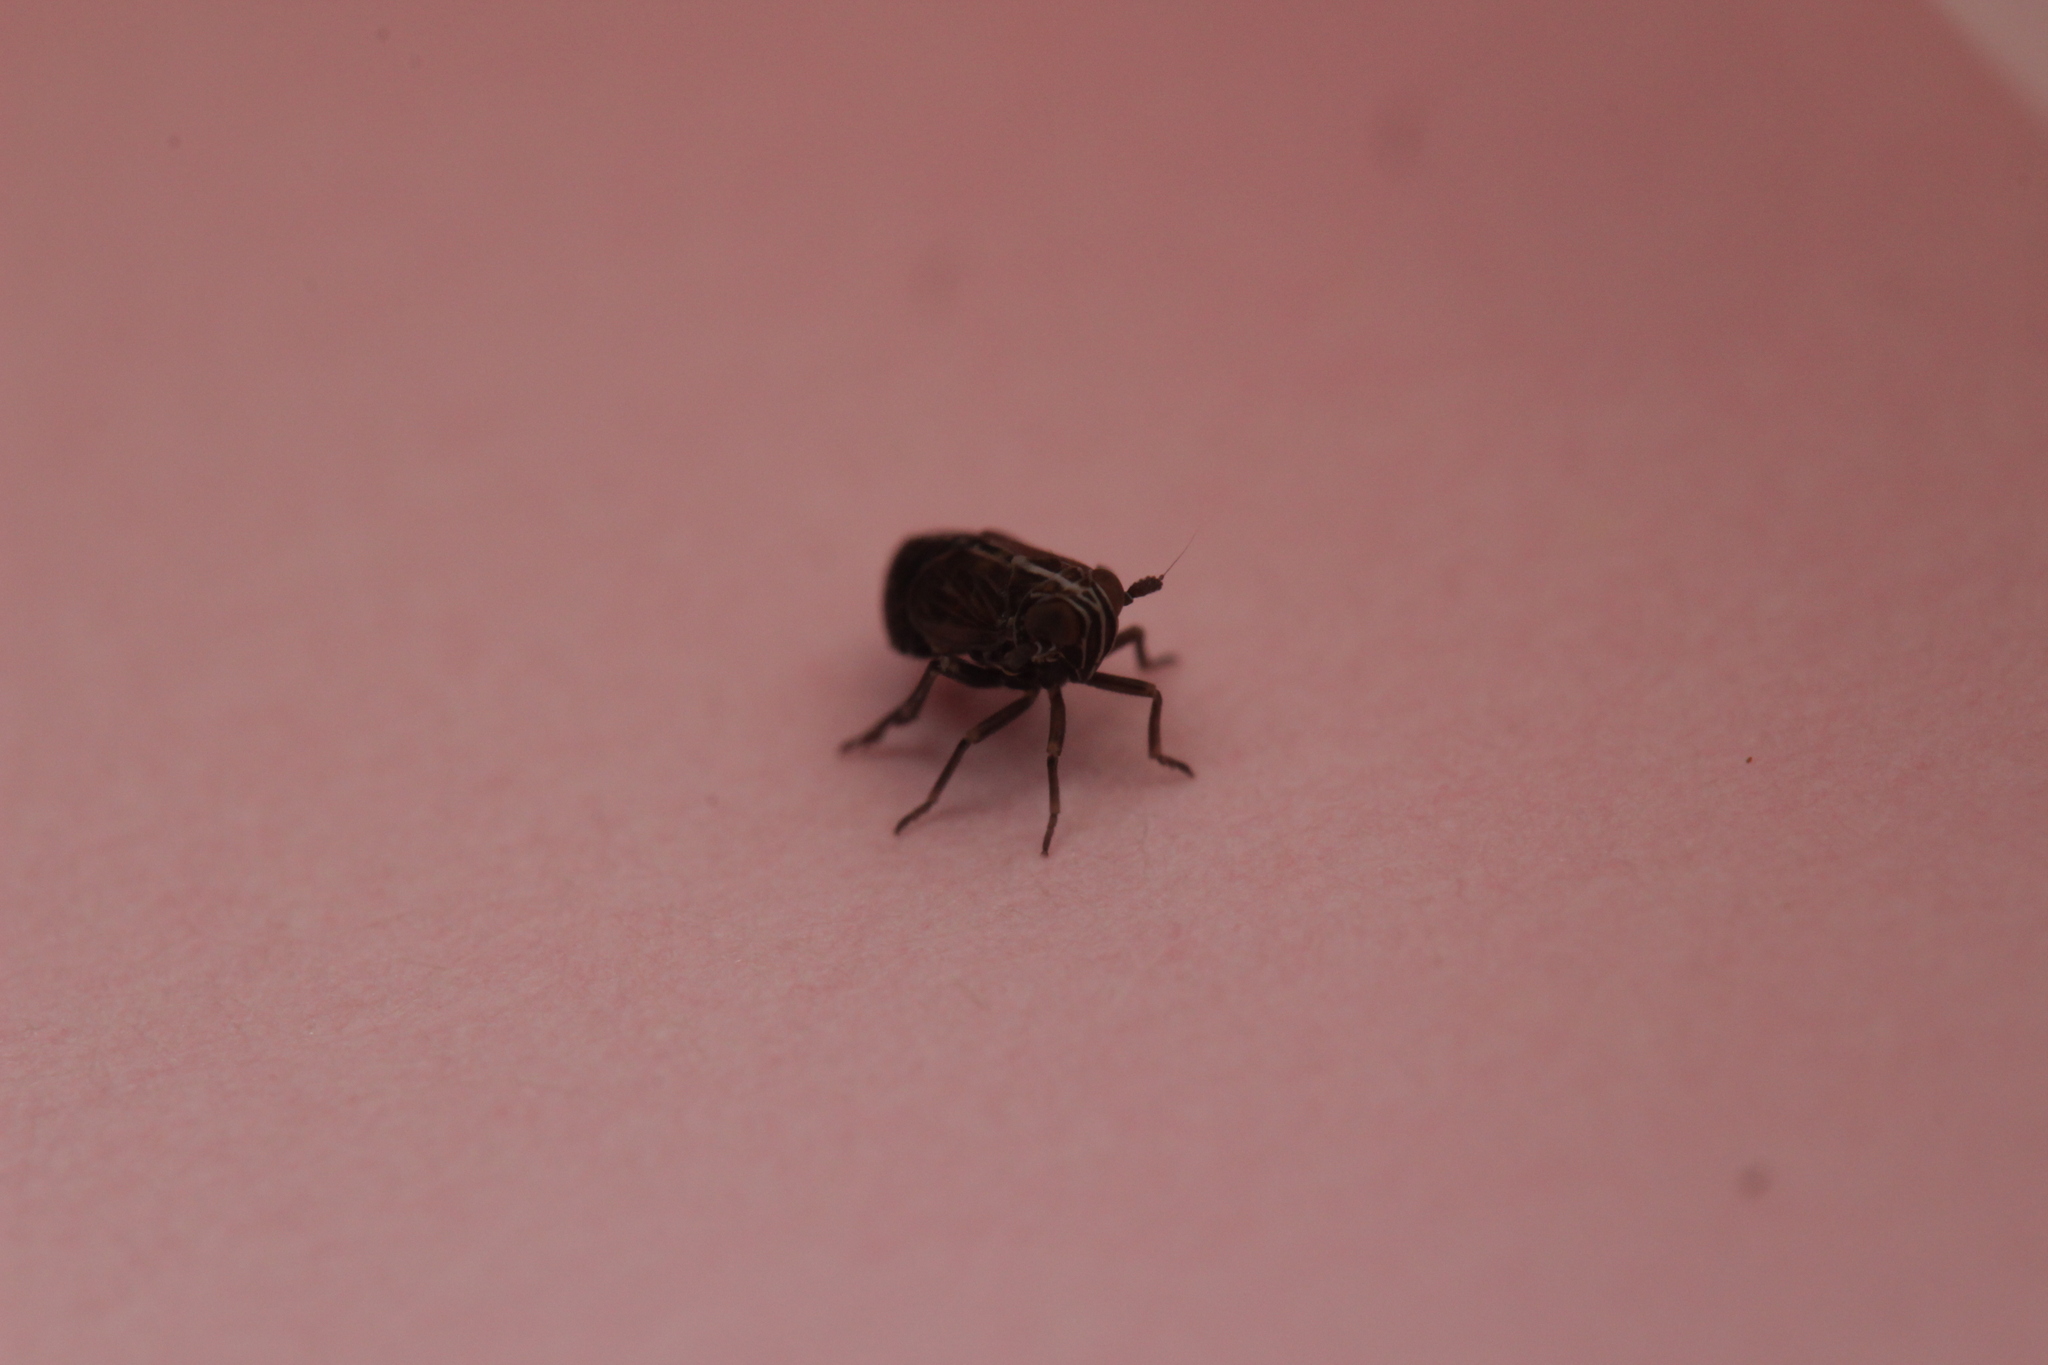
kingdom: Animalia
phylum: Arthropoda
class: Insecta
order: Hemiptera
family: Delphacidae
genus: Ribautodelphax
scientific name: Ribautodelphax albostriata
